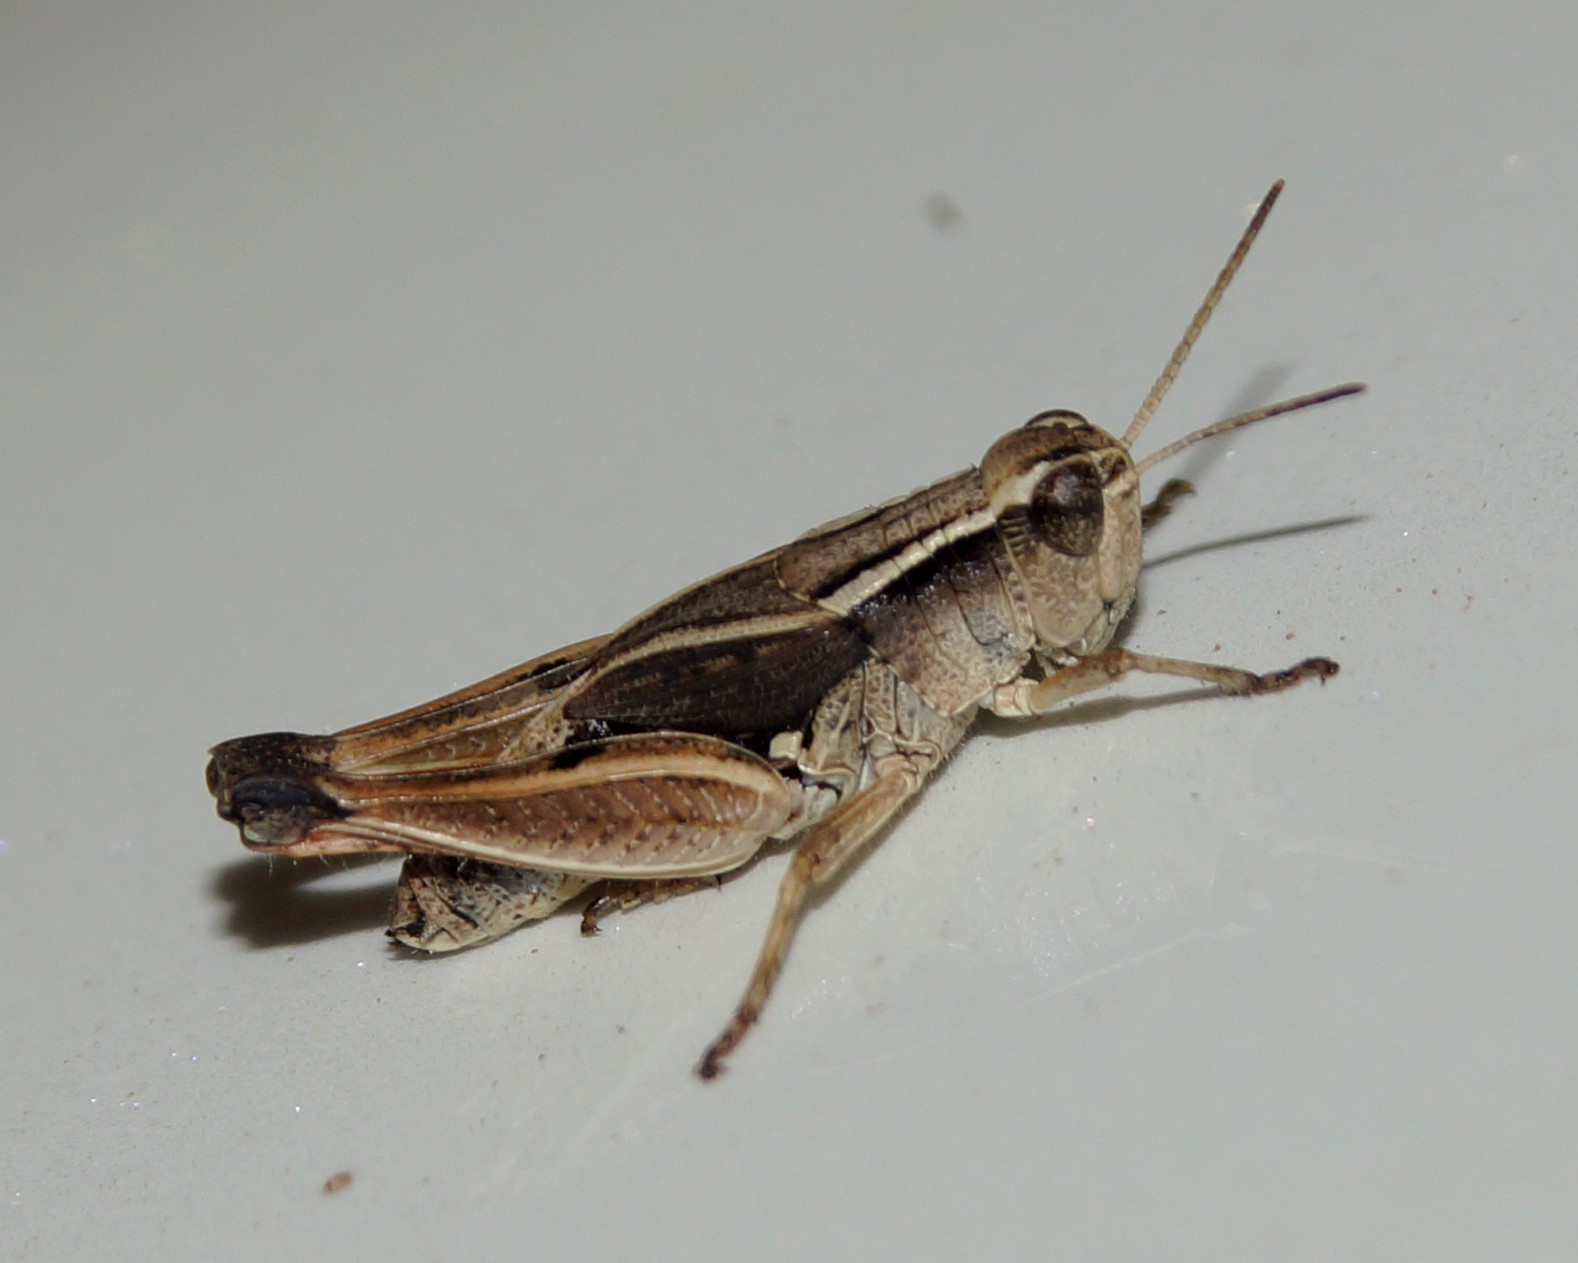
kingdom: Animalia
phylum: Arthropoda
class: Insecta
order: Orthoptera
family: Acrididae
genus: Phaulacridium
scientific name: Phaulacridium vittatum
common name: Wingless grasshopper
